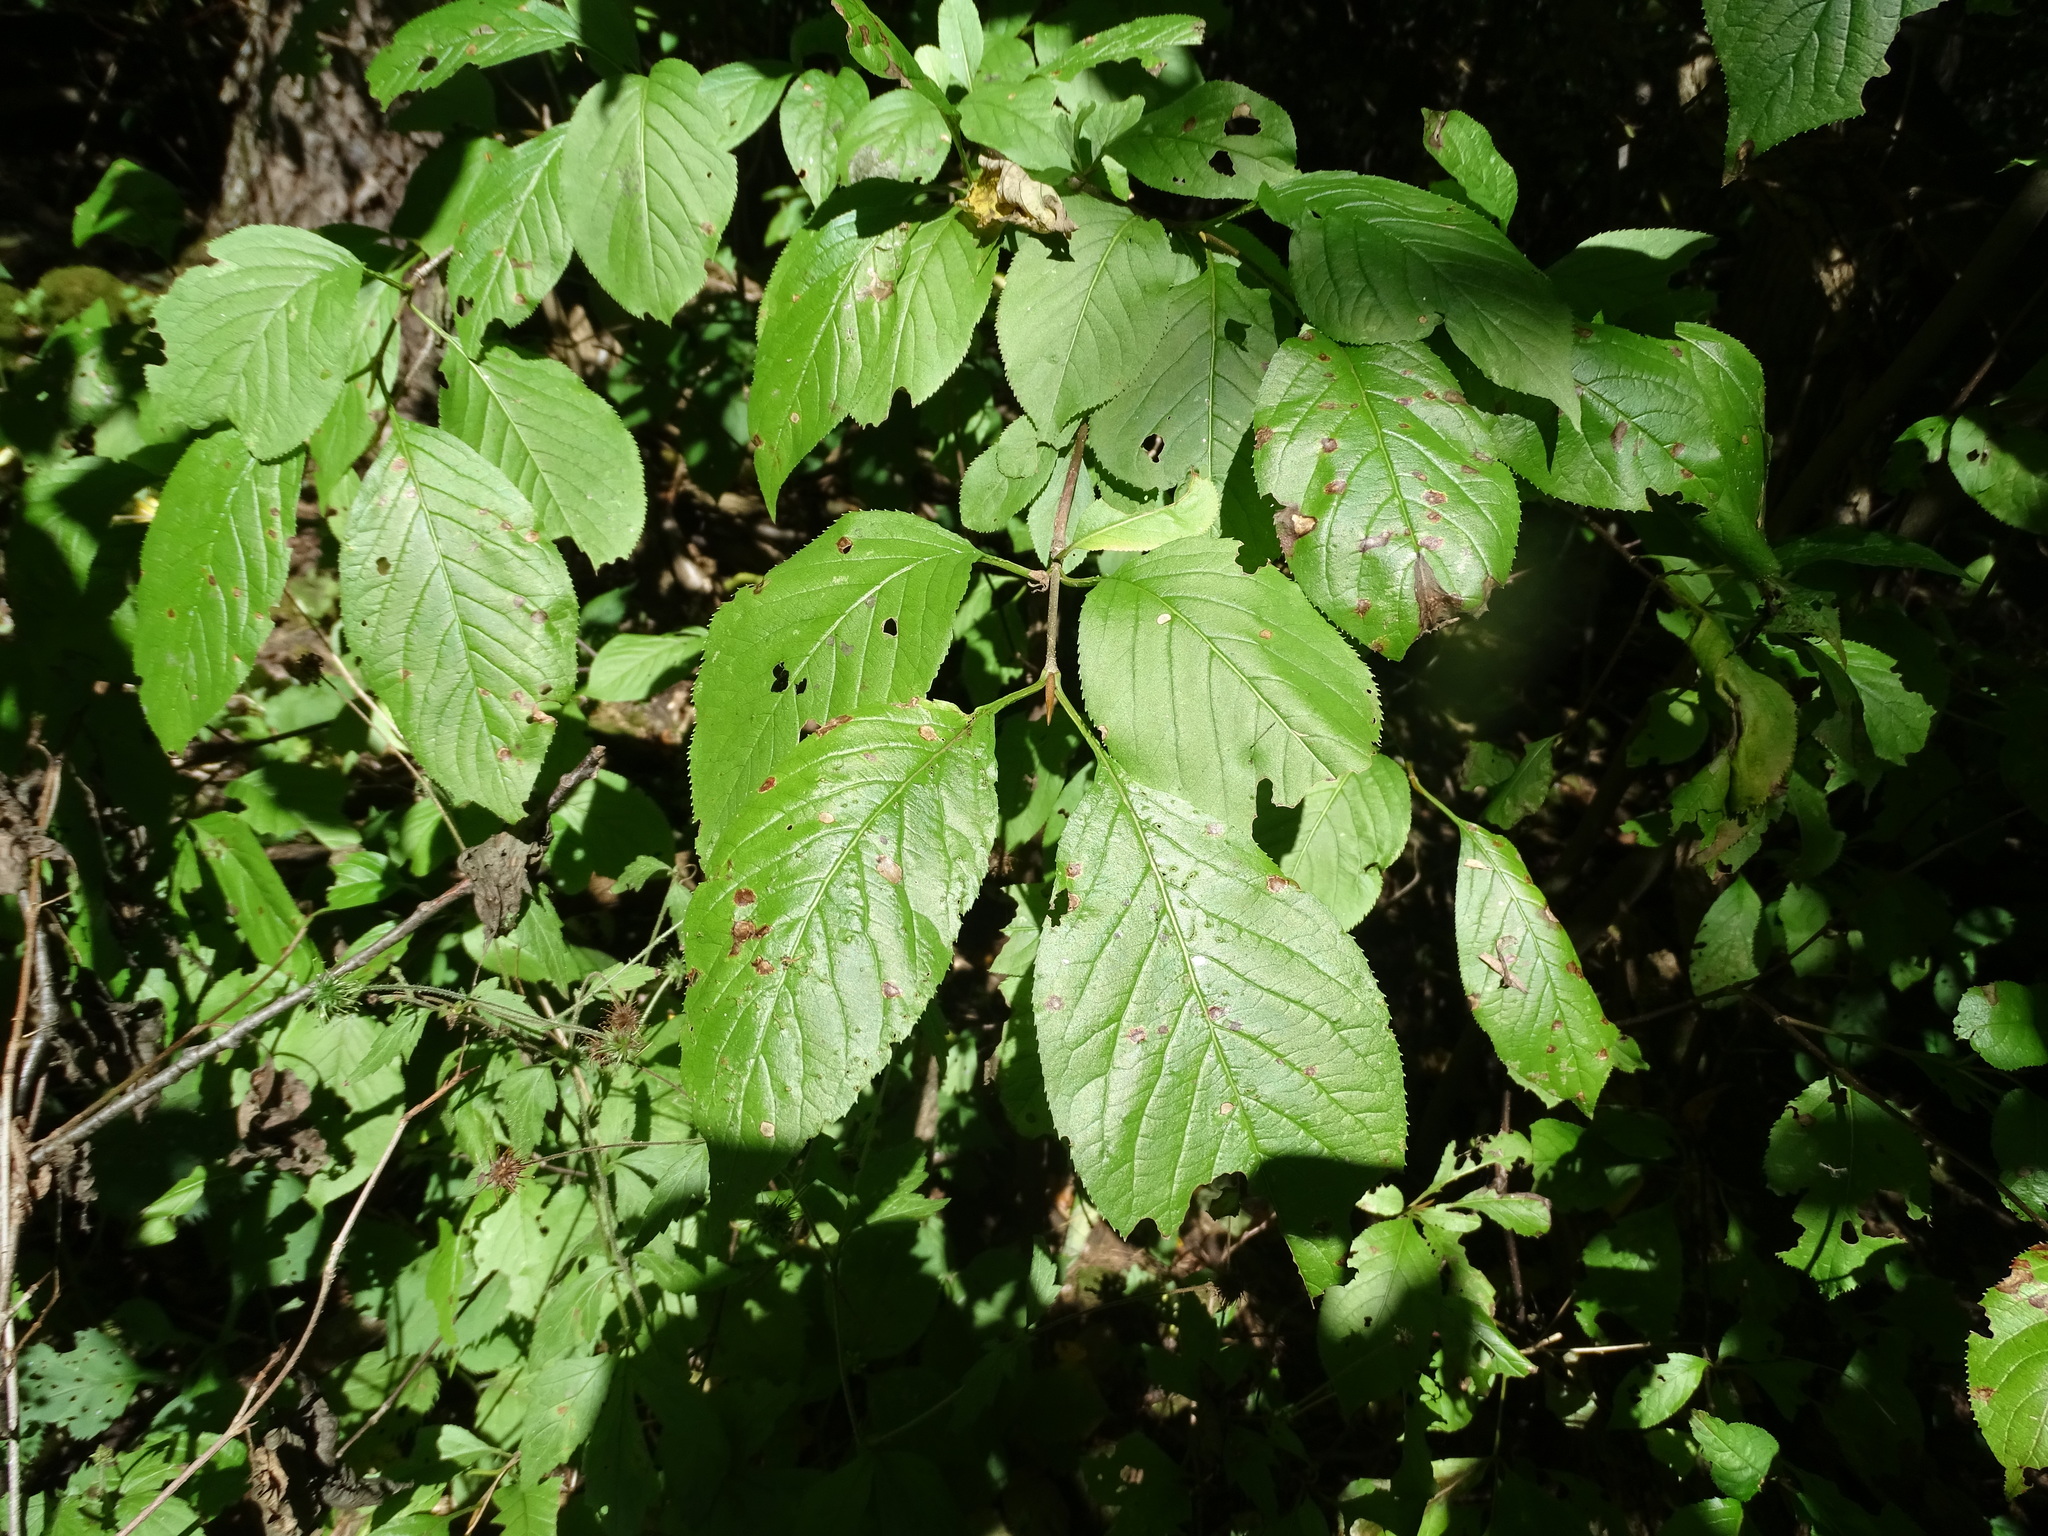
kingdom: Plantae
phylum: Tracheophyta
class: Magnoliopsida
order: Dipsacales
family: Viburnaceae
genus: Viburnum
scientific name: Viburnum lentago
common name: Black haw
